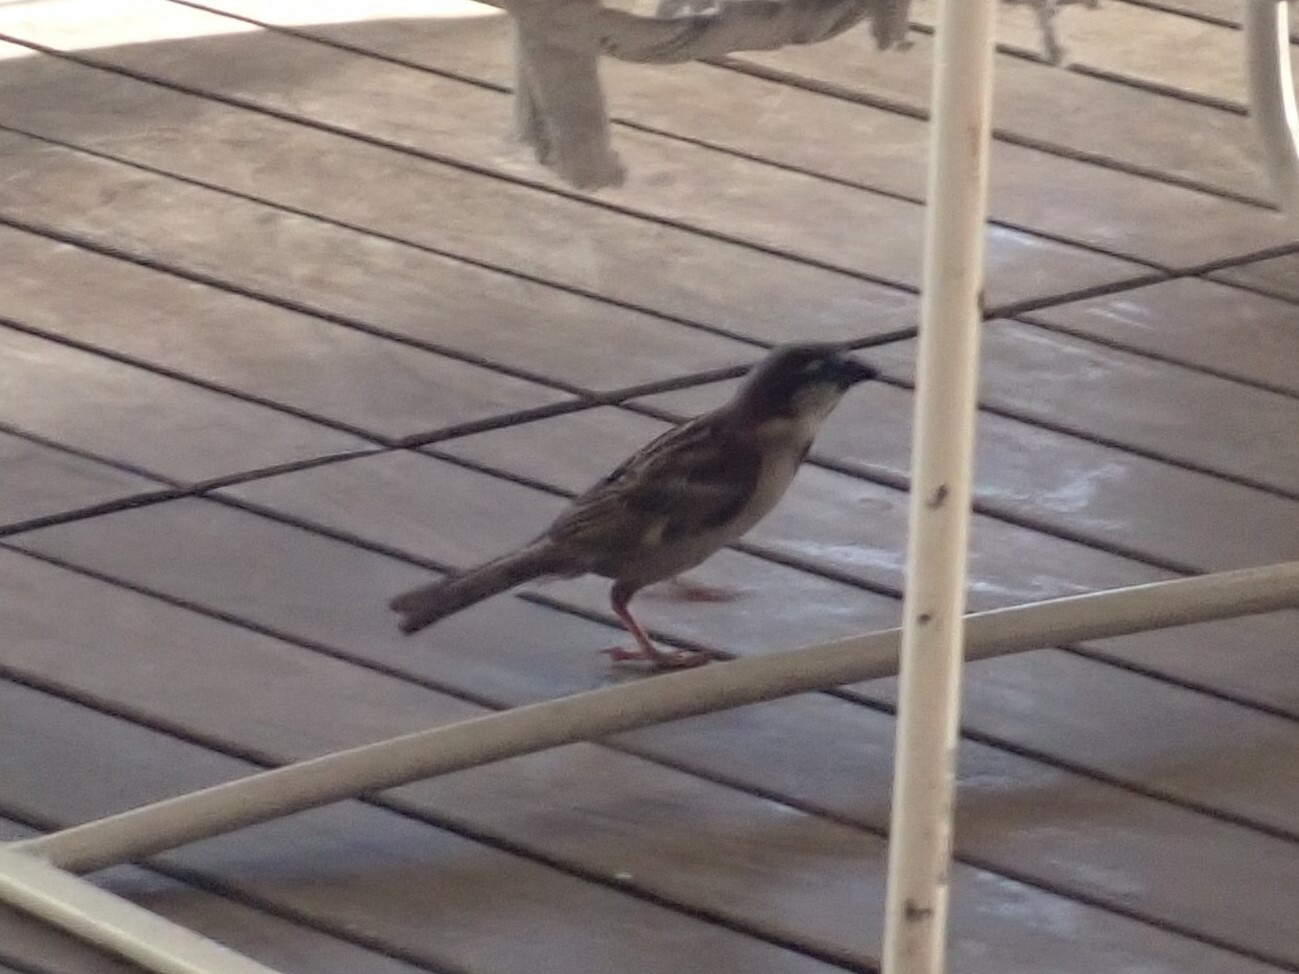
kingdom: Animalia
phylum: Chordata
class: Aves
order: Passeriformes
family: Passeridae
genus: Passer
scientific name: Passer domesticus
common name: House sparrow
